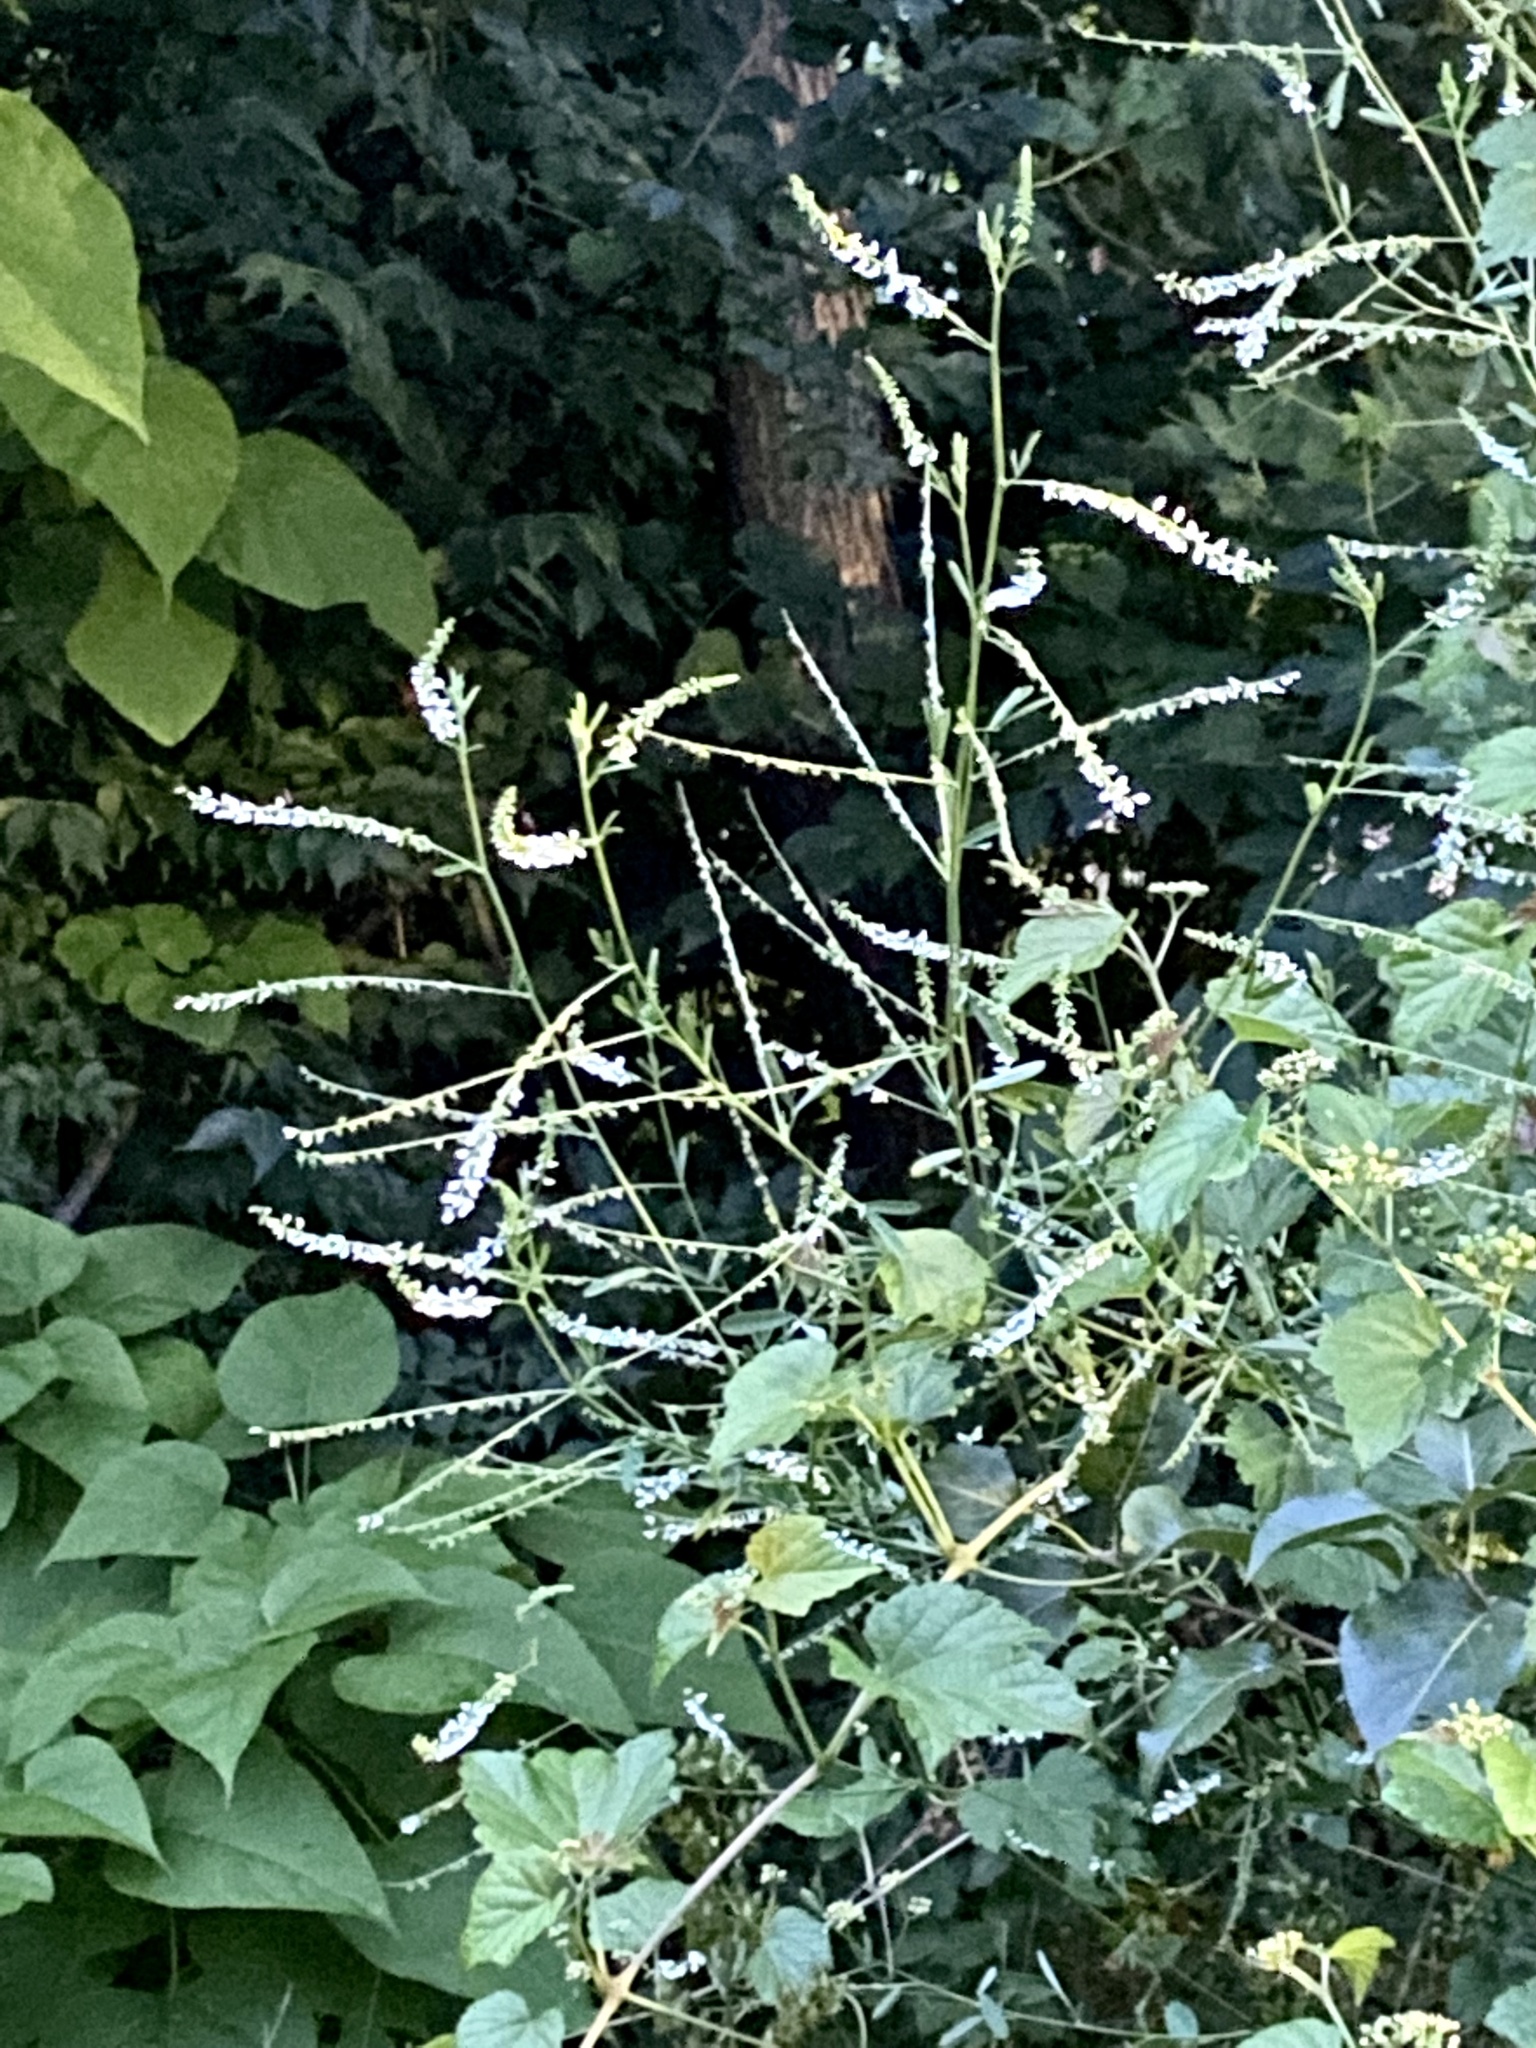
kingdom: Plantae
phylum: Tracheophyta
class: Magnoliopsida
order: Fabales
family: Fabaceae
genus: Melilotus
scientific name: Melilotus albus
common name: White melilot
